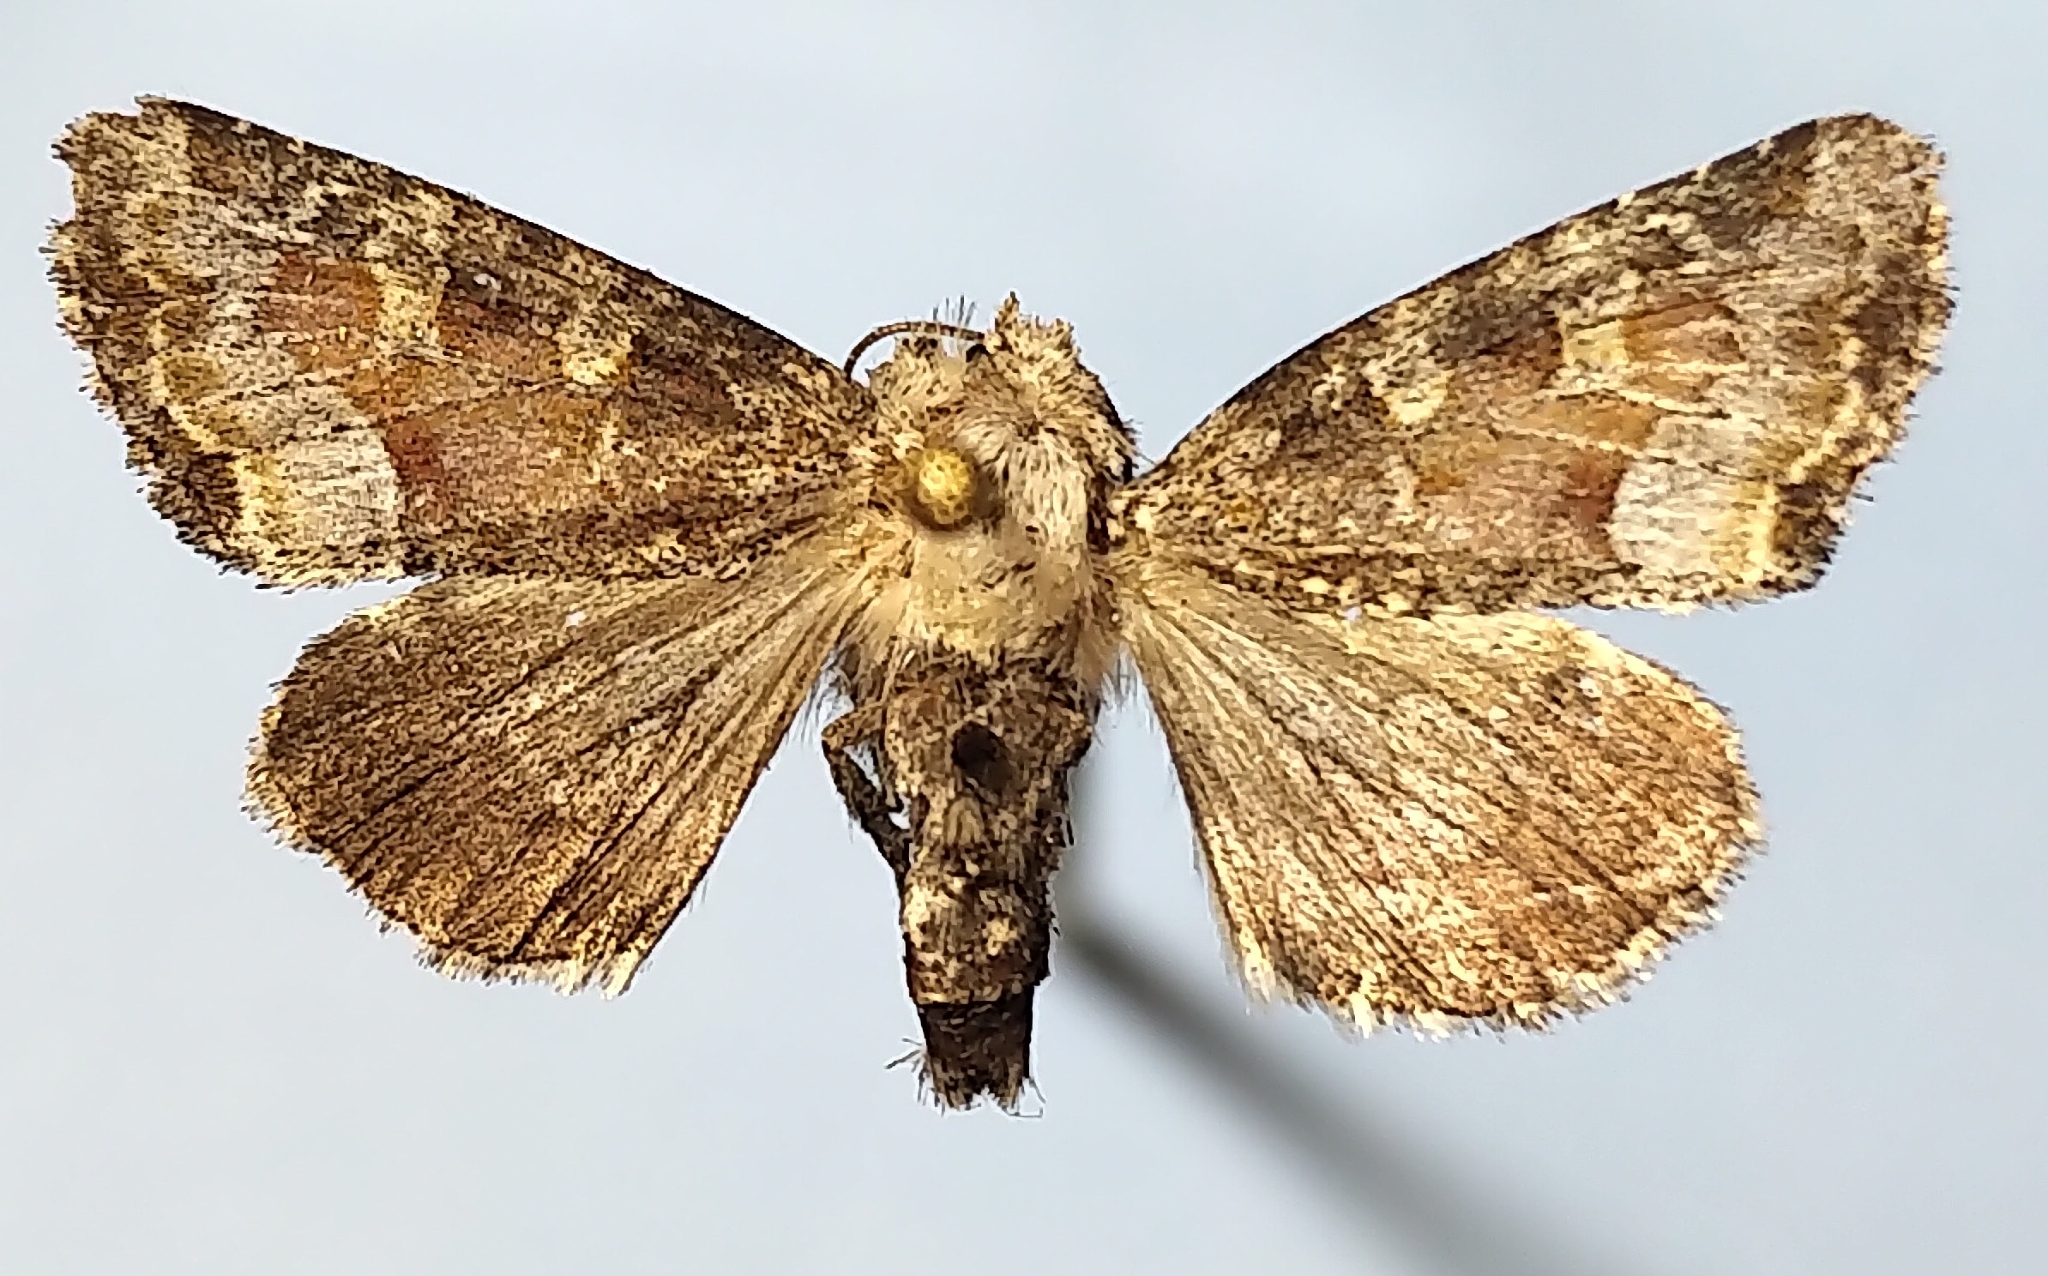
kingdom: Animalia
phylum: Arthropoda
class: Insecta
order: Lepidoptera
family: Noctuidae
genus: Oligia
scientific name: Oligia egens
